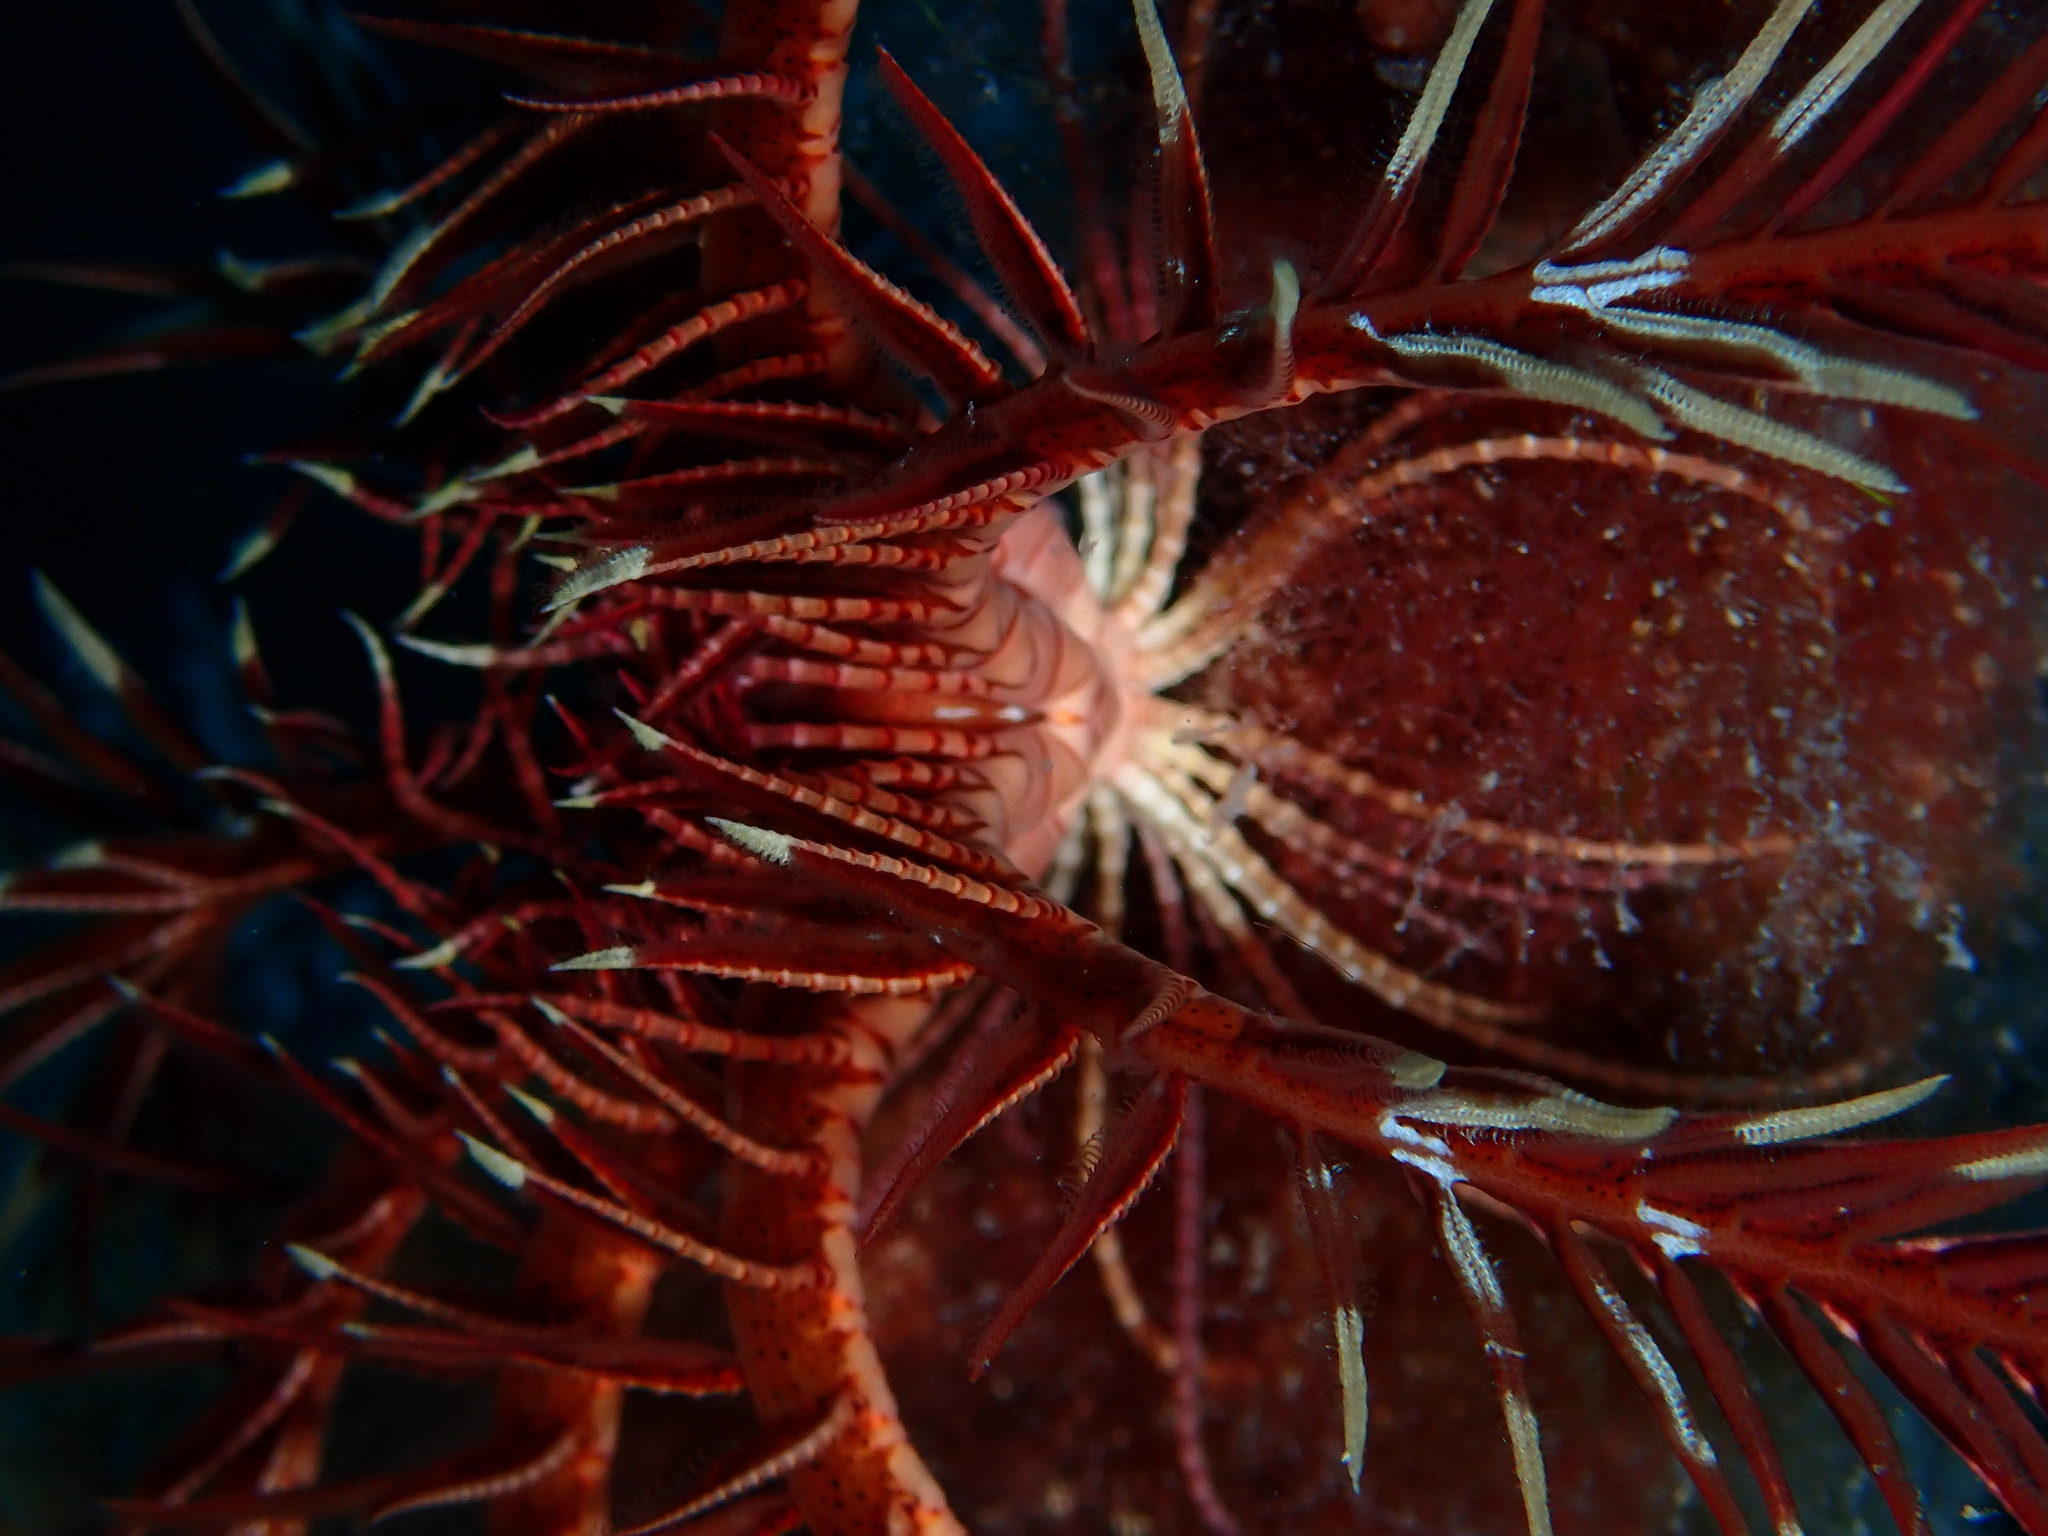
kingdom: Animalia
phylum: Echinodermata
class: Crinoidea
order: Comatulida
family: Antedonidae
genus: Antedon
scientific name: Antedon mediterranea
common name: Feather star
